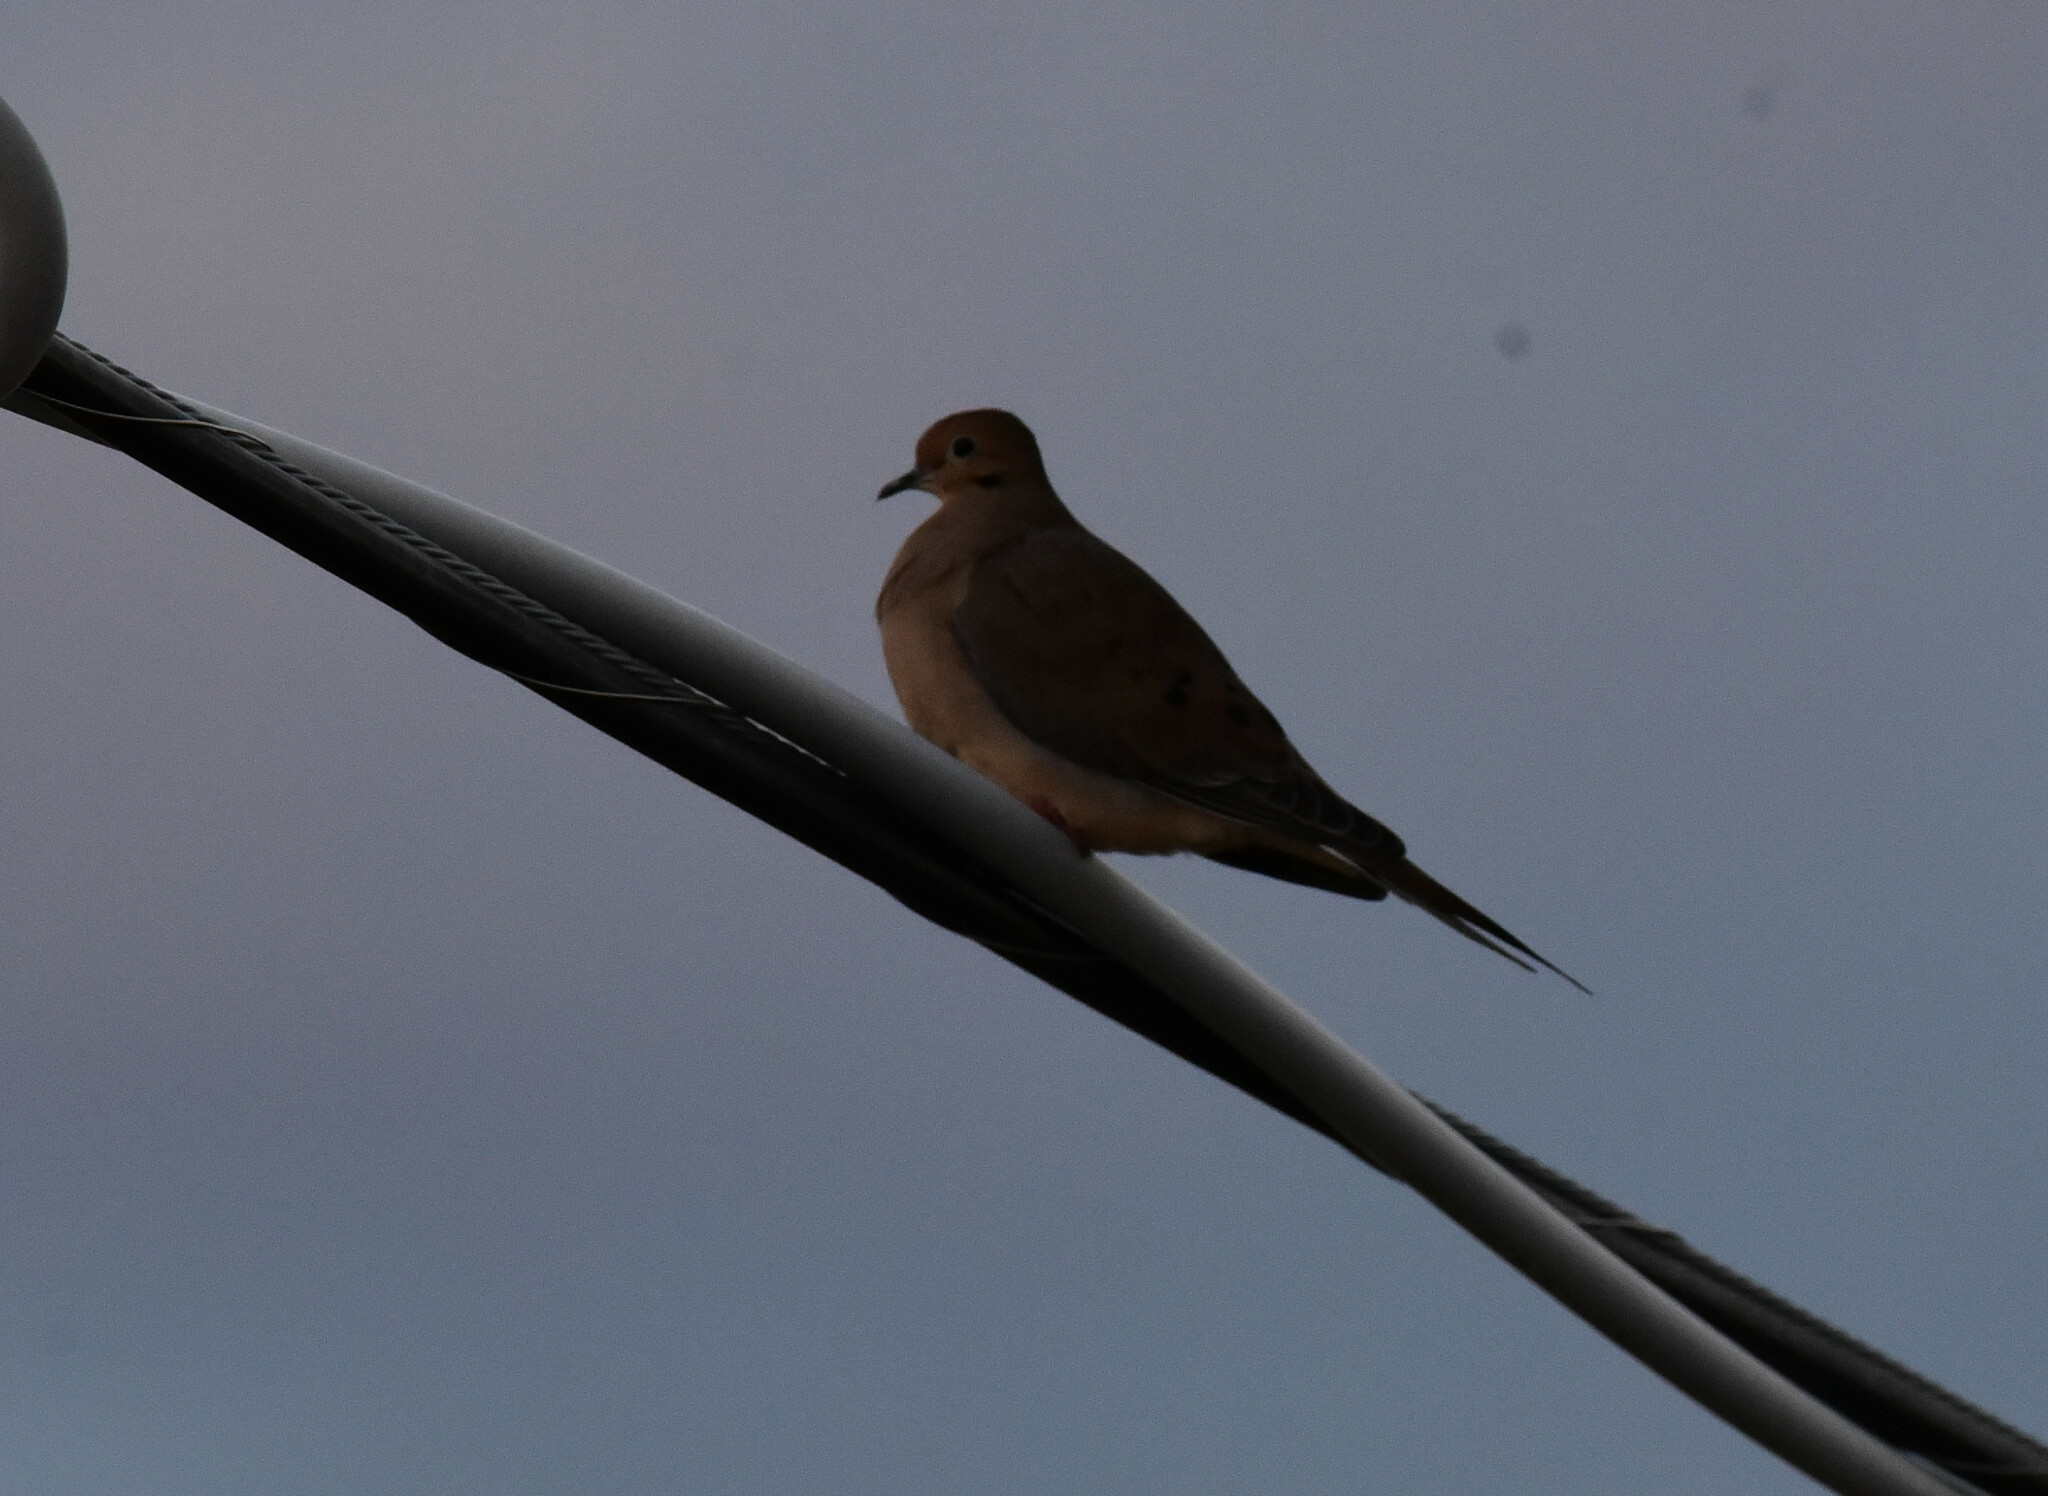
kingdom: Animalia
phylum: Chordata
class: Aves
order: Columbiformes
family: Columbidae
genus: Zenaida
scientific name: Zenaida macroura
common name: Mourning dove
